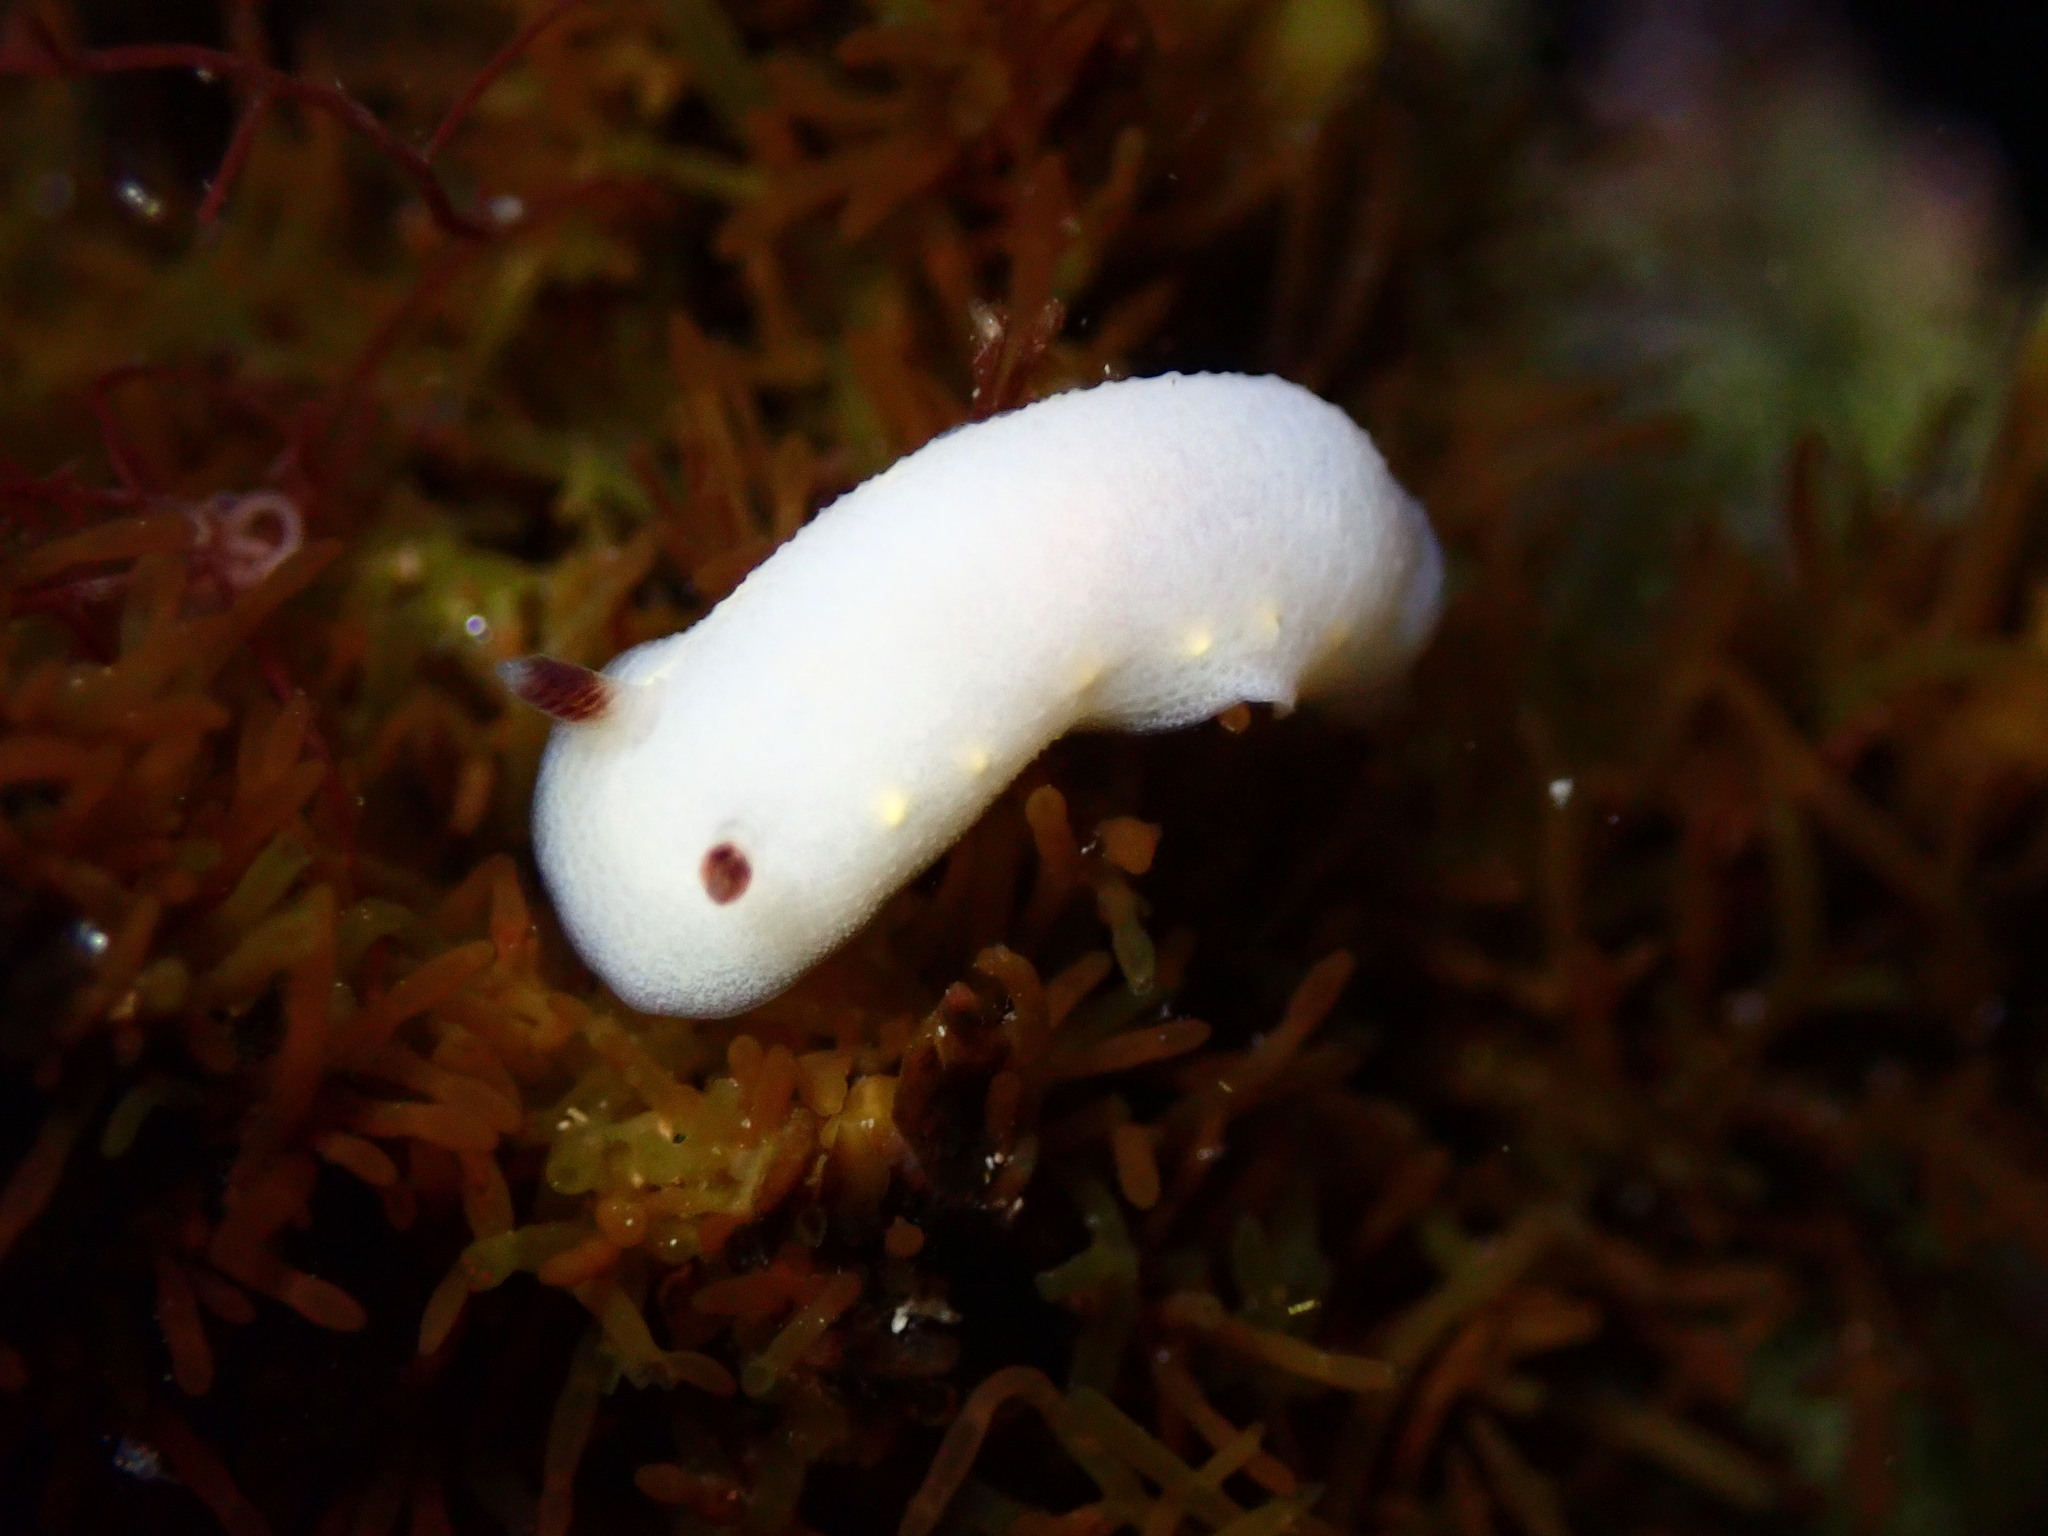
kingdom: Animalia
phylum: Mollusca
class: Gastropoda
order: Nudibranchia
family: Cadlinidae
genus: Cadlina
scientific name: Cadlina flavomaculata
